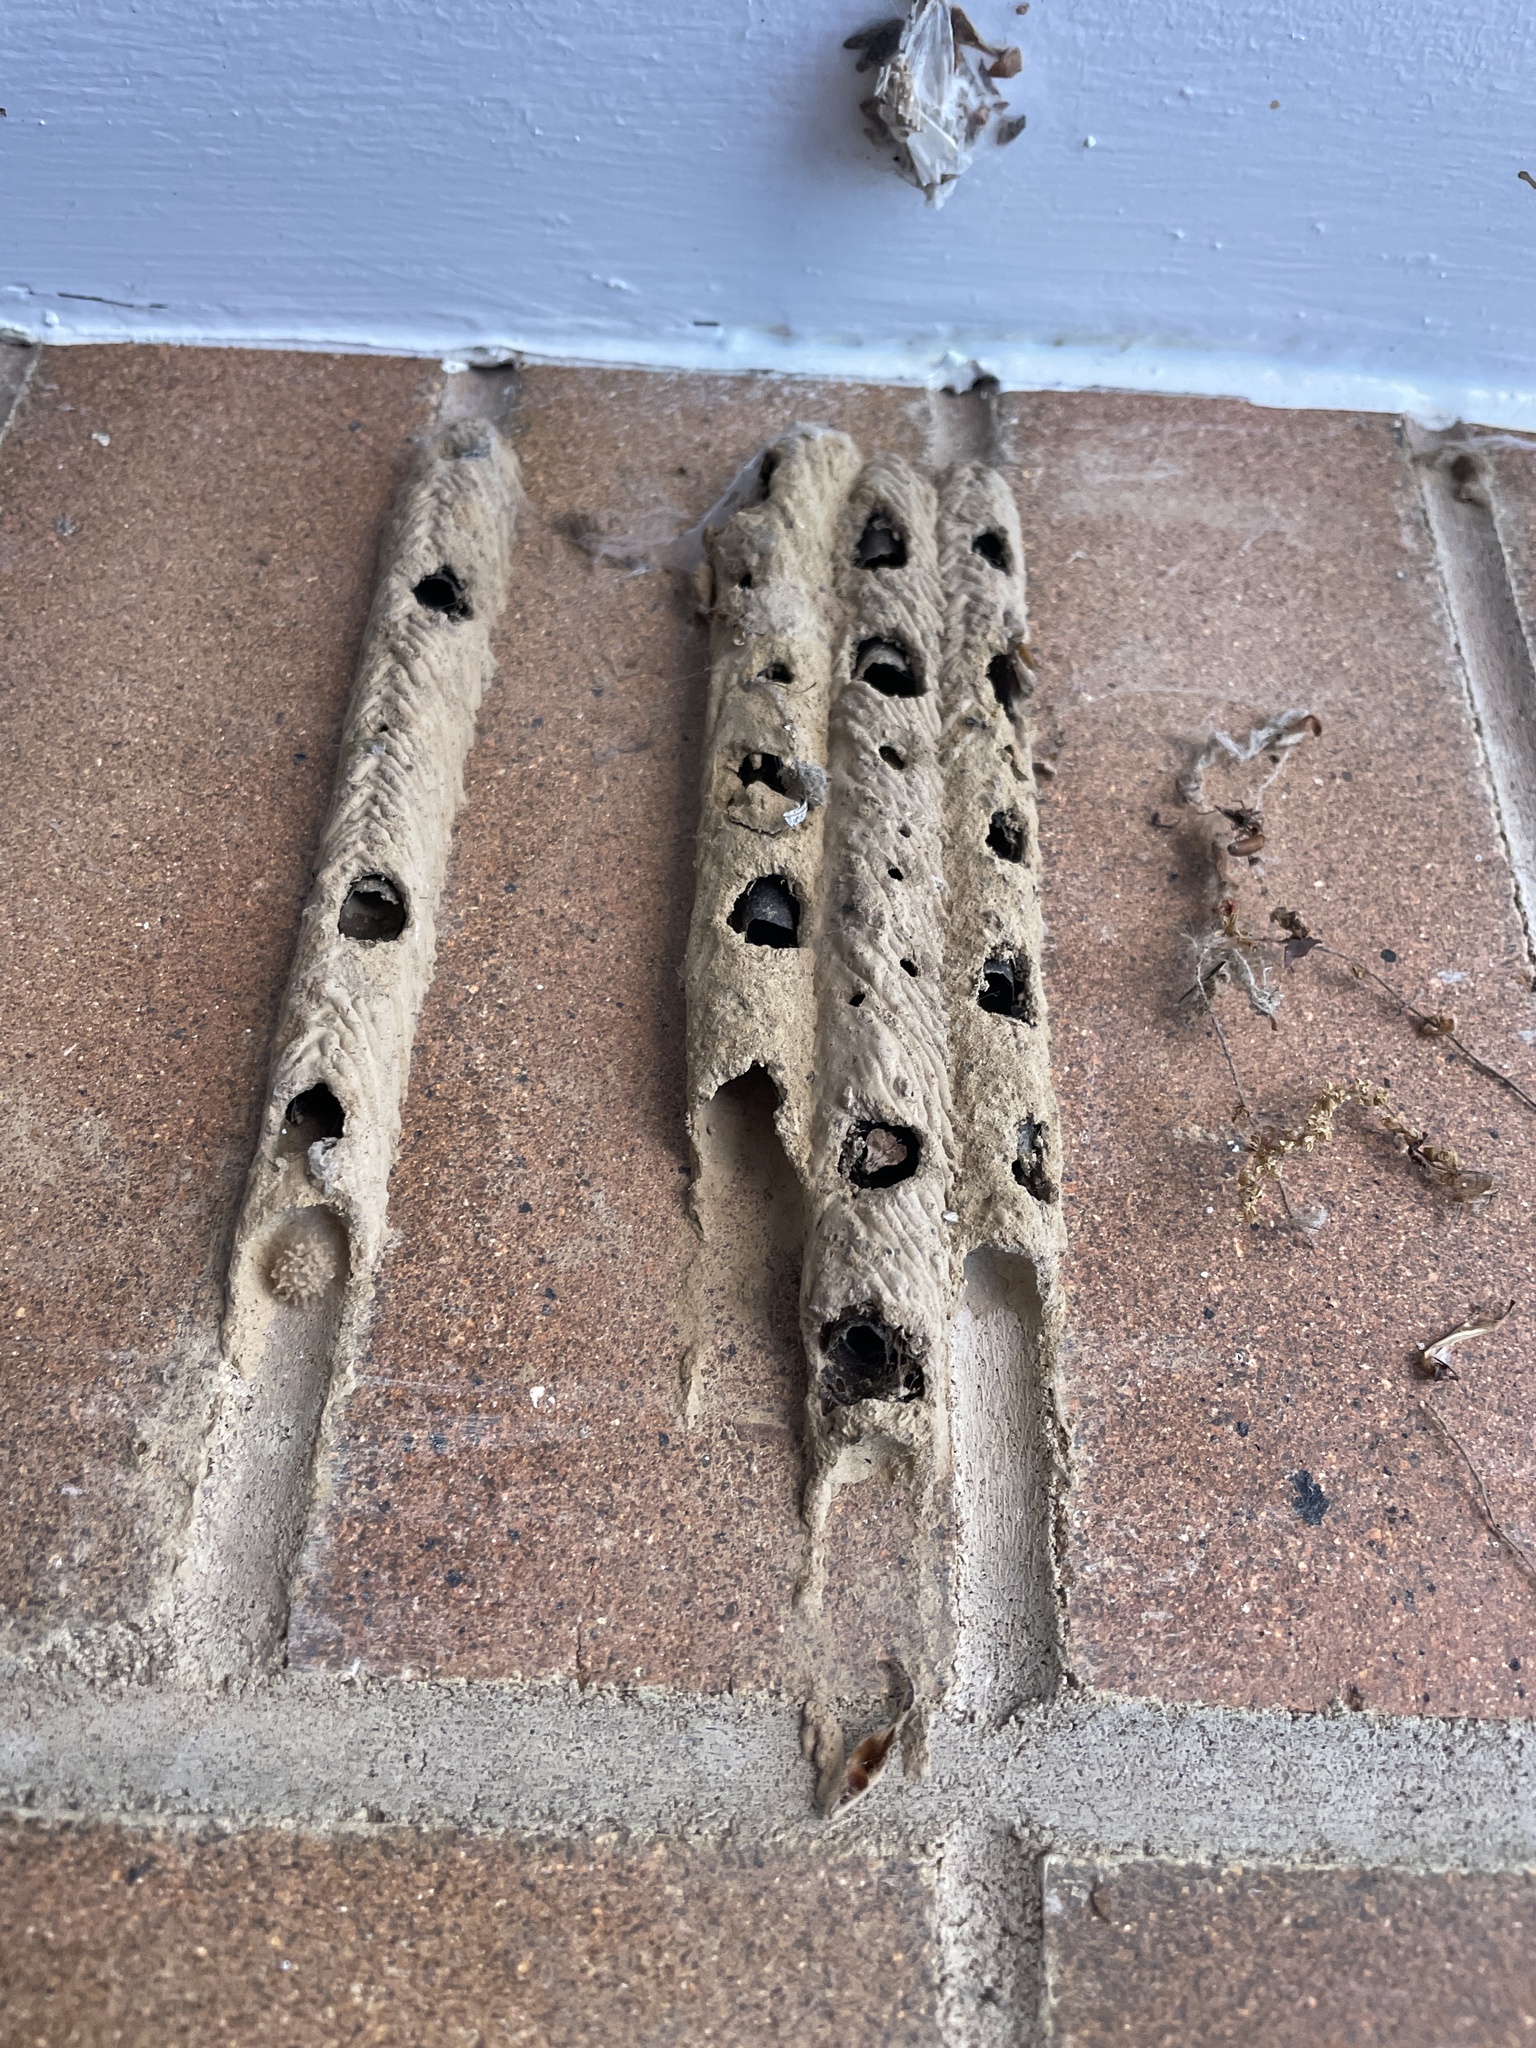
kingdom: Animalia
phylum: Arthropoda
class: Insecta
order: Hymenoptera
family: Crabronidae
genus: Trypoxylon
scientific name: Trypoxylon politum
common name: Organ-pipe mud-dauber wasp
